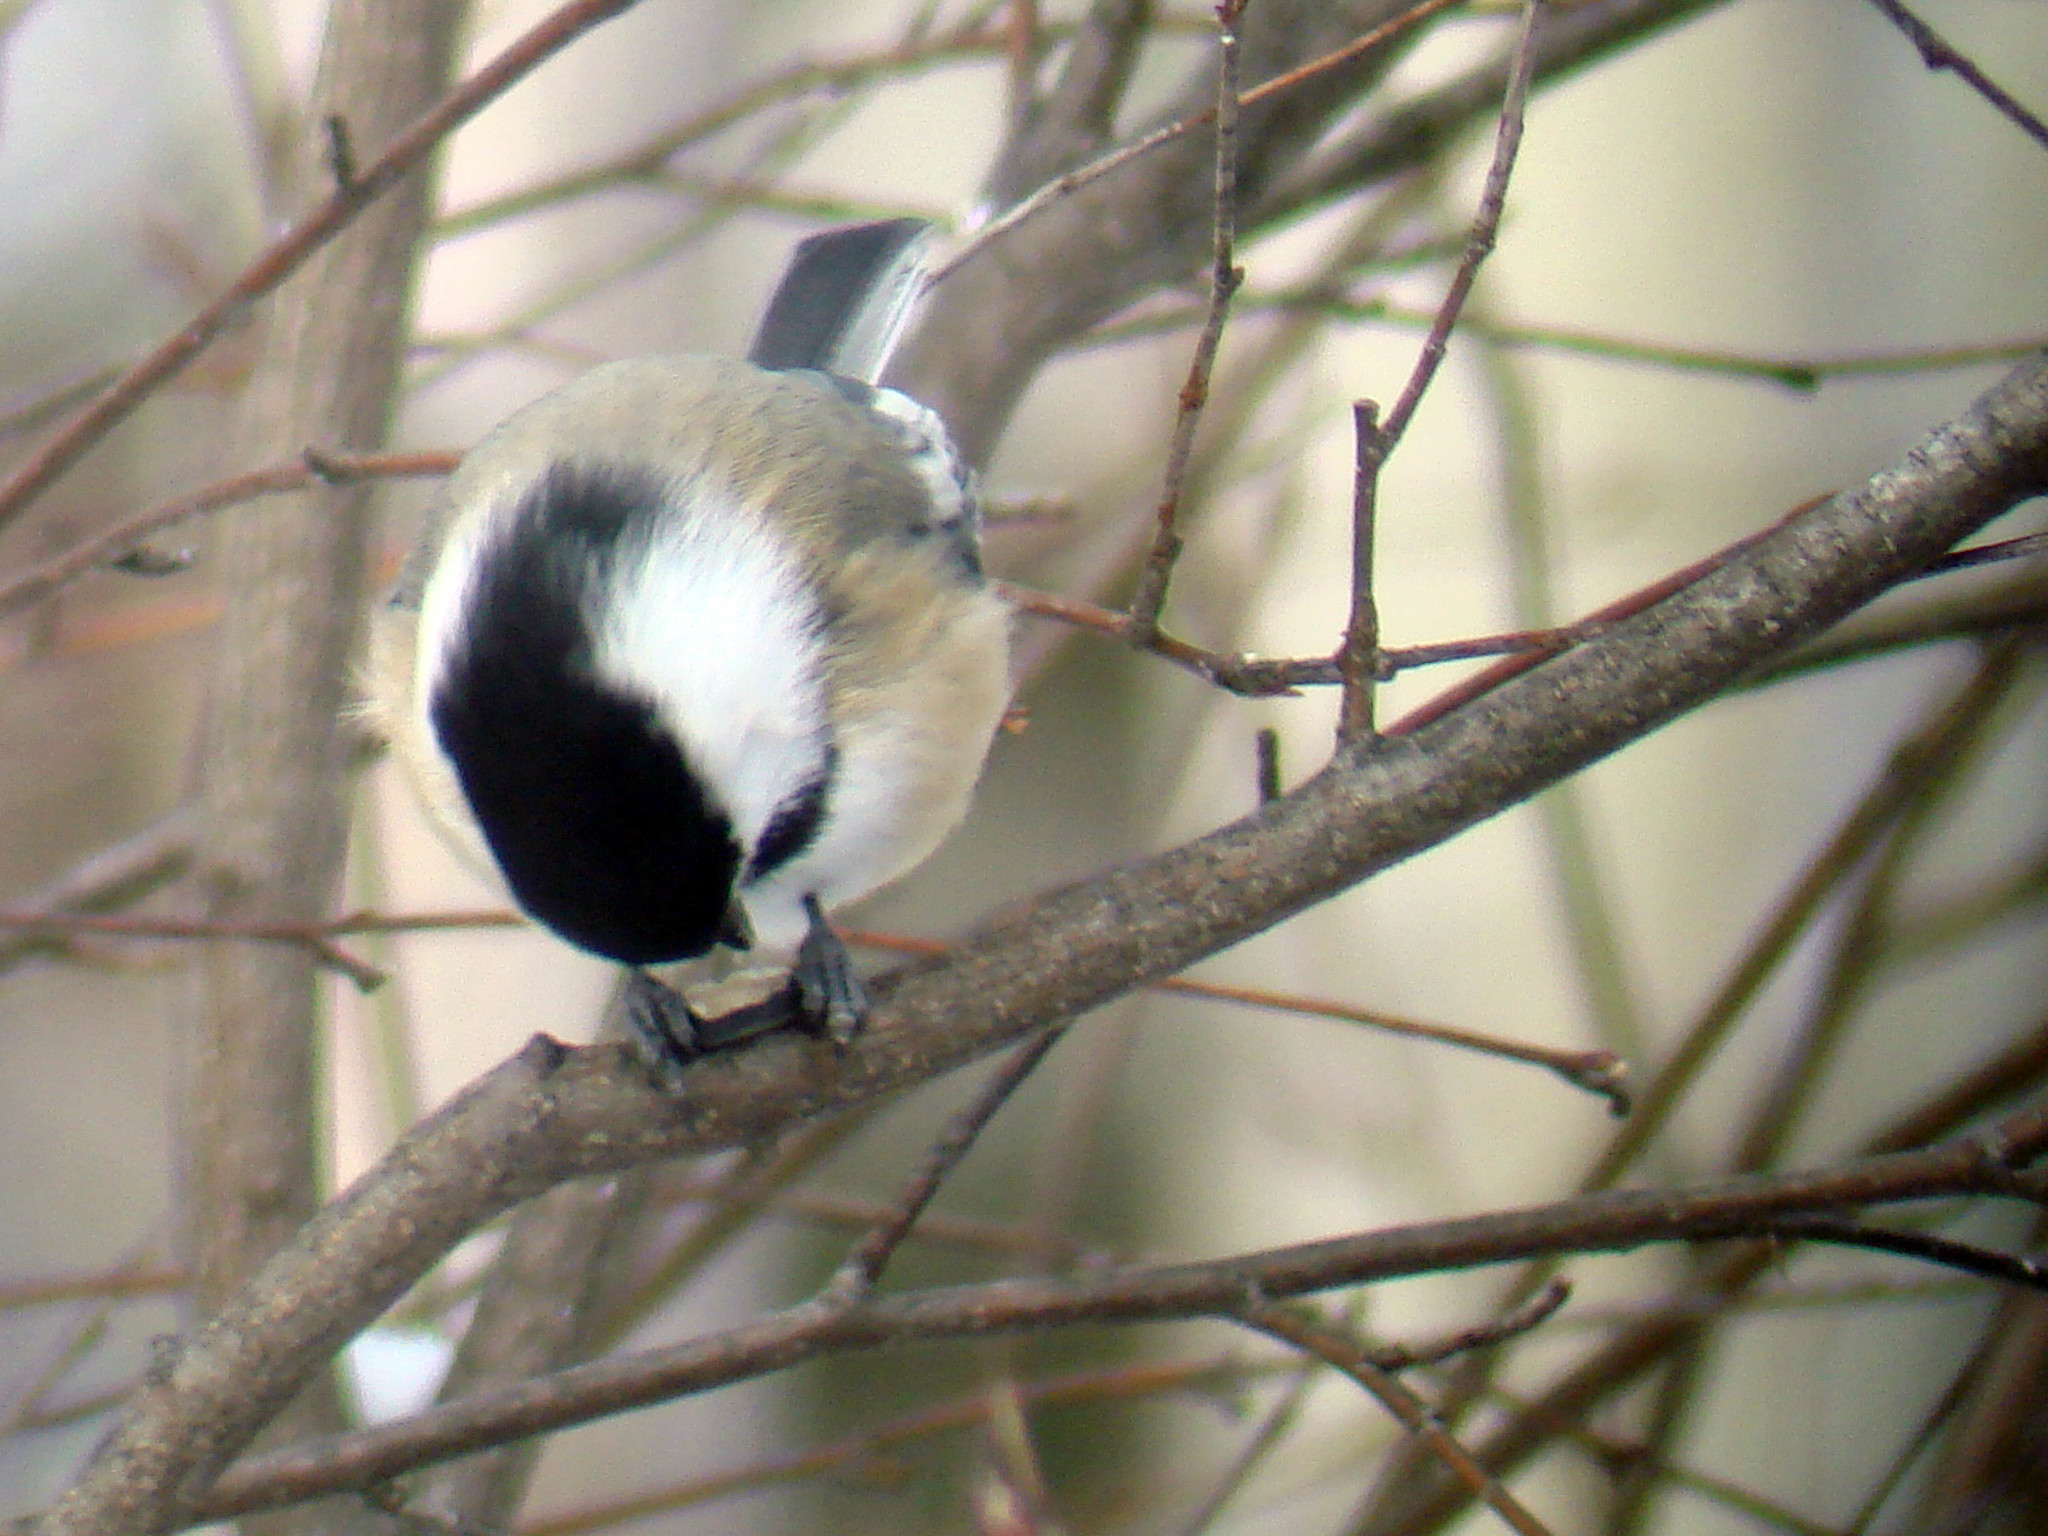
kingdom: Animalia
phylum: Chordata
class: Aves
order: Passeriformes
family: Paridae
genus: Poecile
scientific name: Poecile atricapillus
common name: Black-capped chickadee
